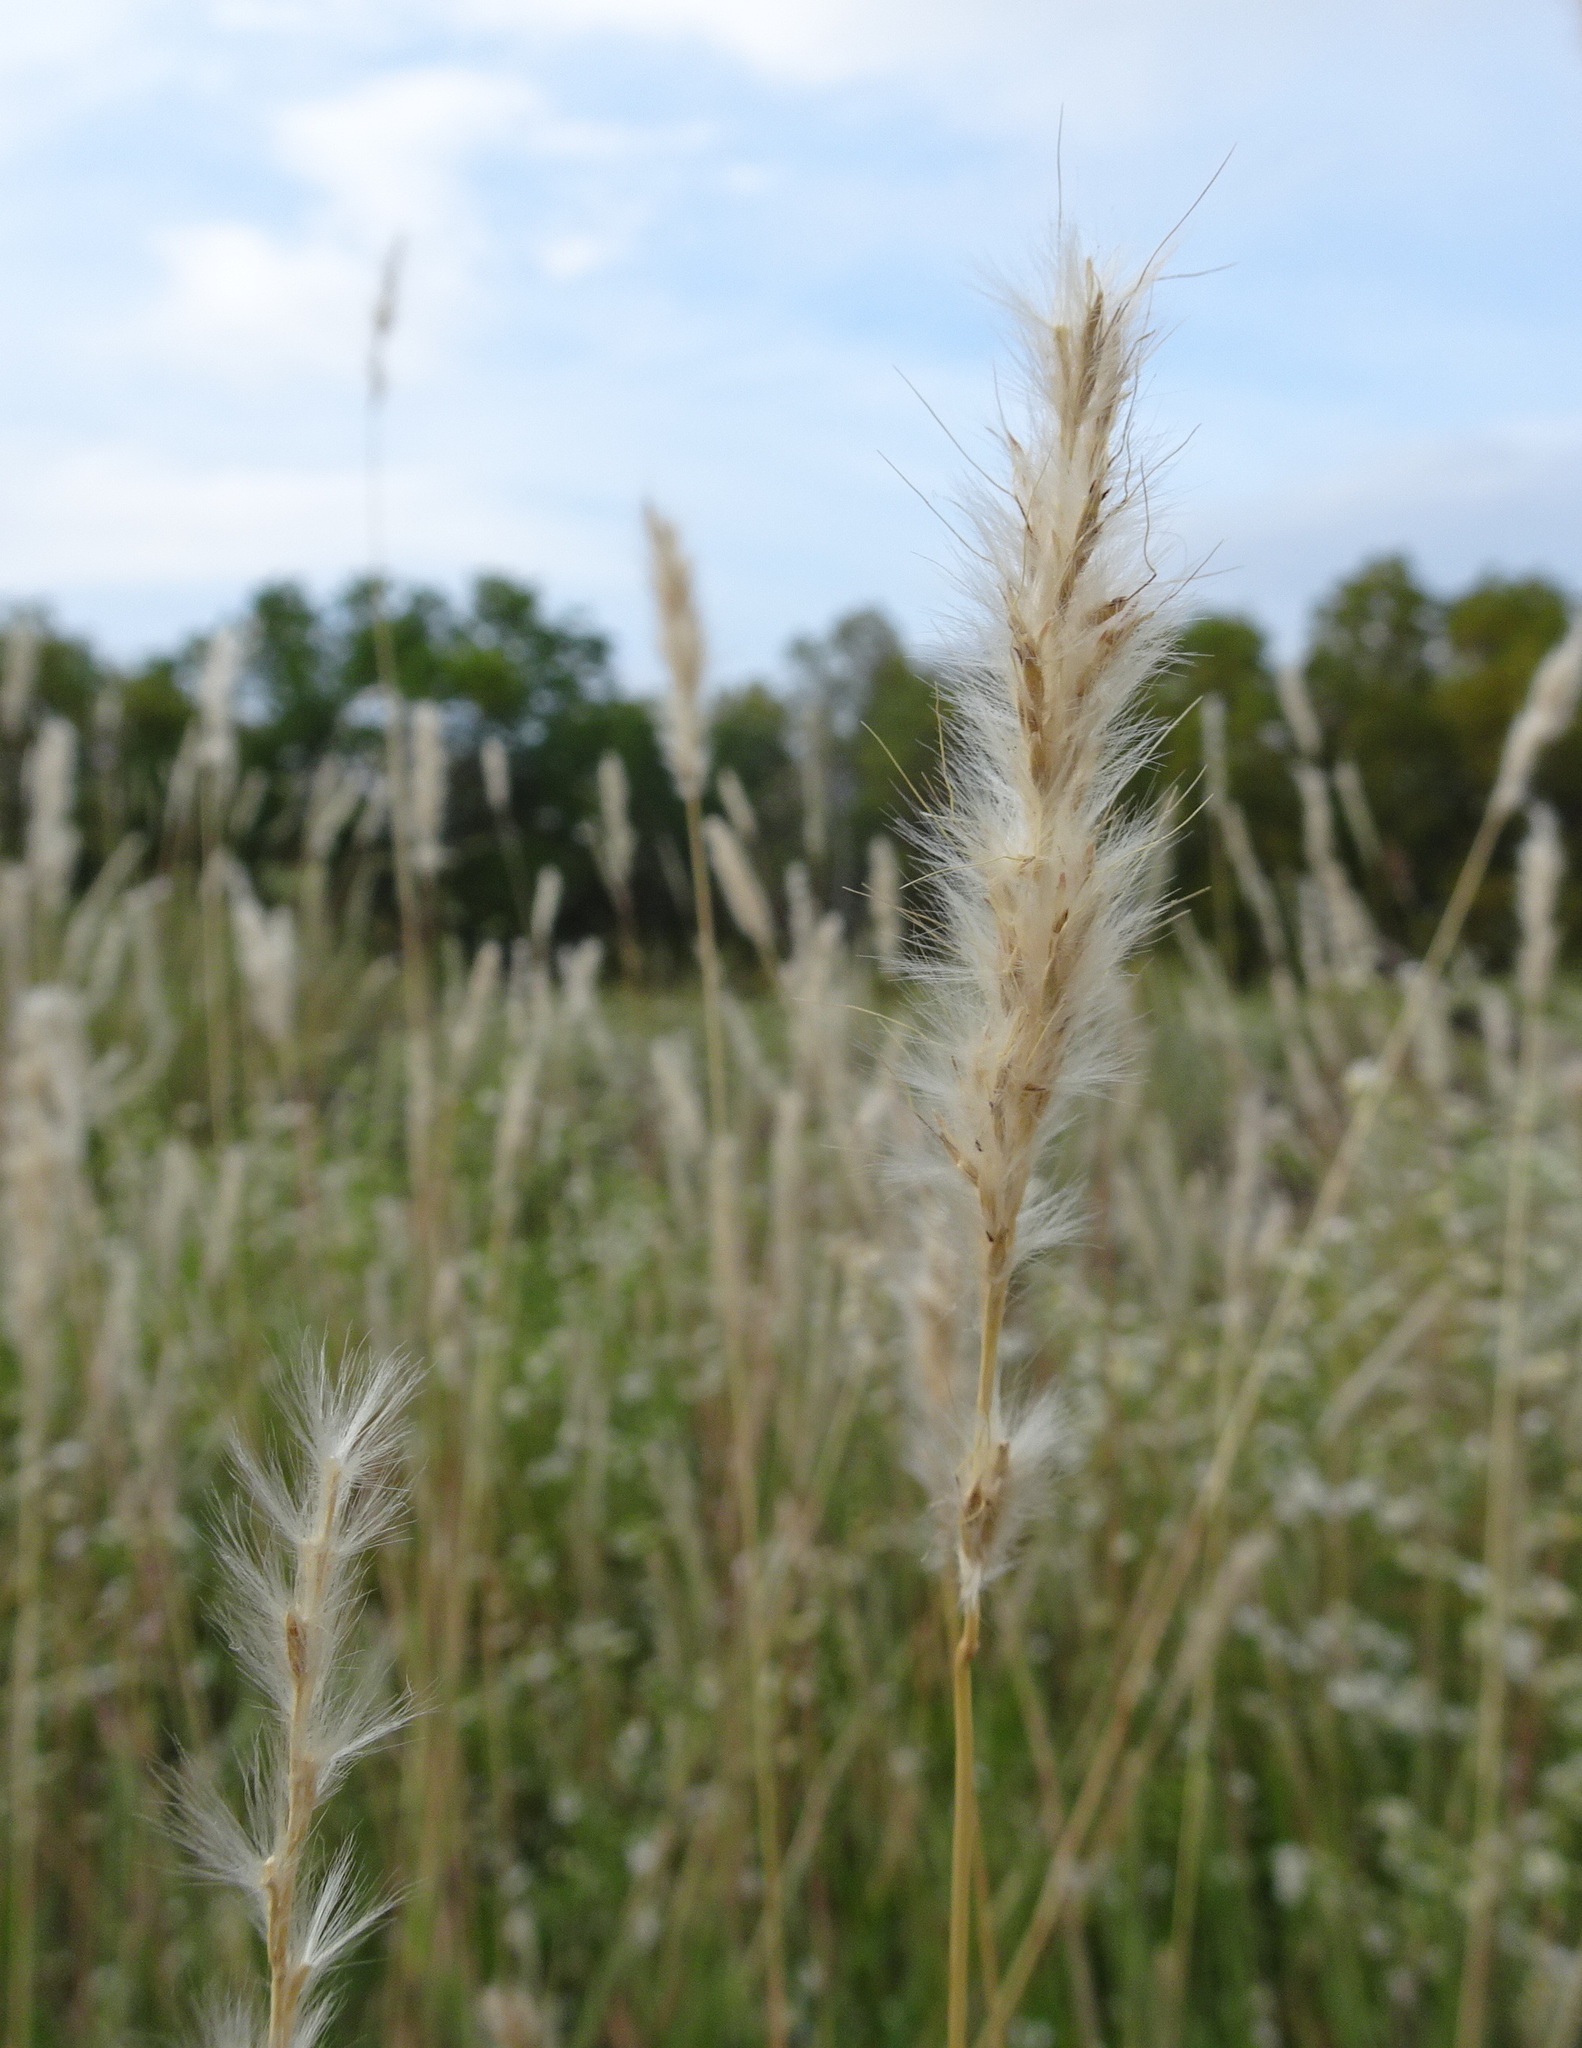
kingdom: Plantae
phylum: Tracheophyta
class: Liliopsida
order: Poales
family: Poaceae
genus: Bothriochloa
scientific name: Bothriochloa torreyana
